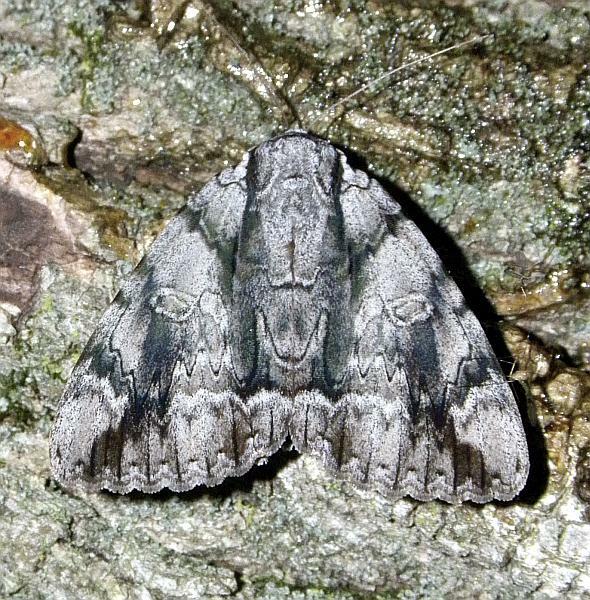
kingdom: Animalia
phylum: Arthropoda
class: Insecta
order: Lepidoptera
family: Erebidae
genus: Catocala
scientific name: Catocala vidua
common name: The widow
